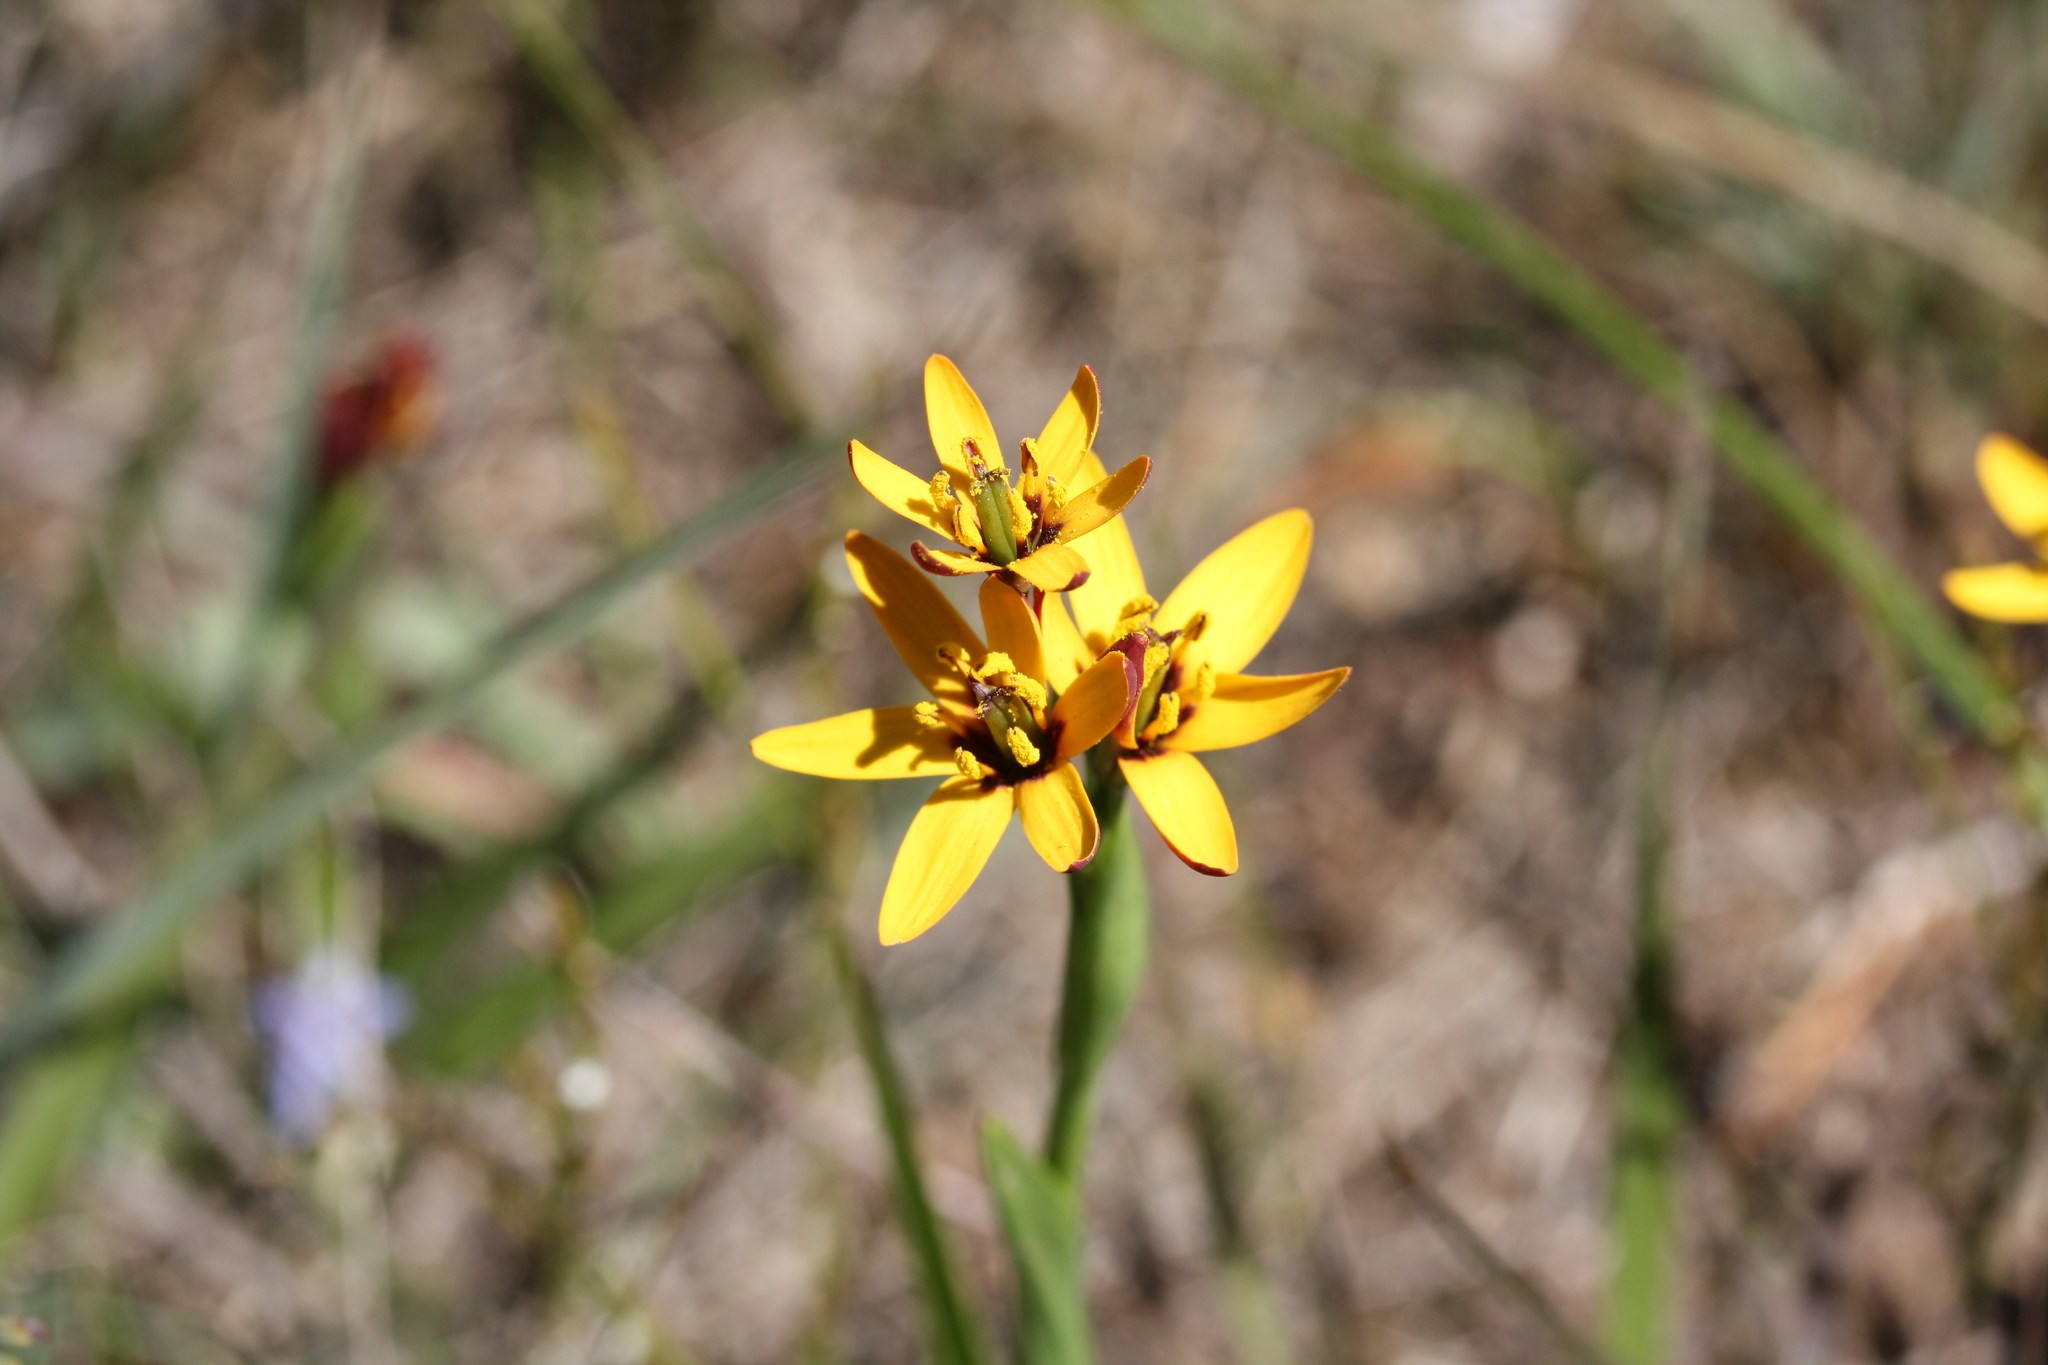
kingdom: Plantae
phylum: Tracheophyta
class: Liliopsida
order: Liliales
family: Colchicaceae
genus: Baeometra
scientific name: Baeometra uniflora
